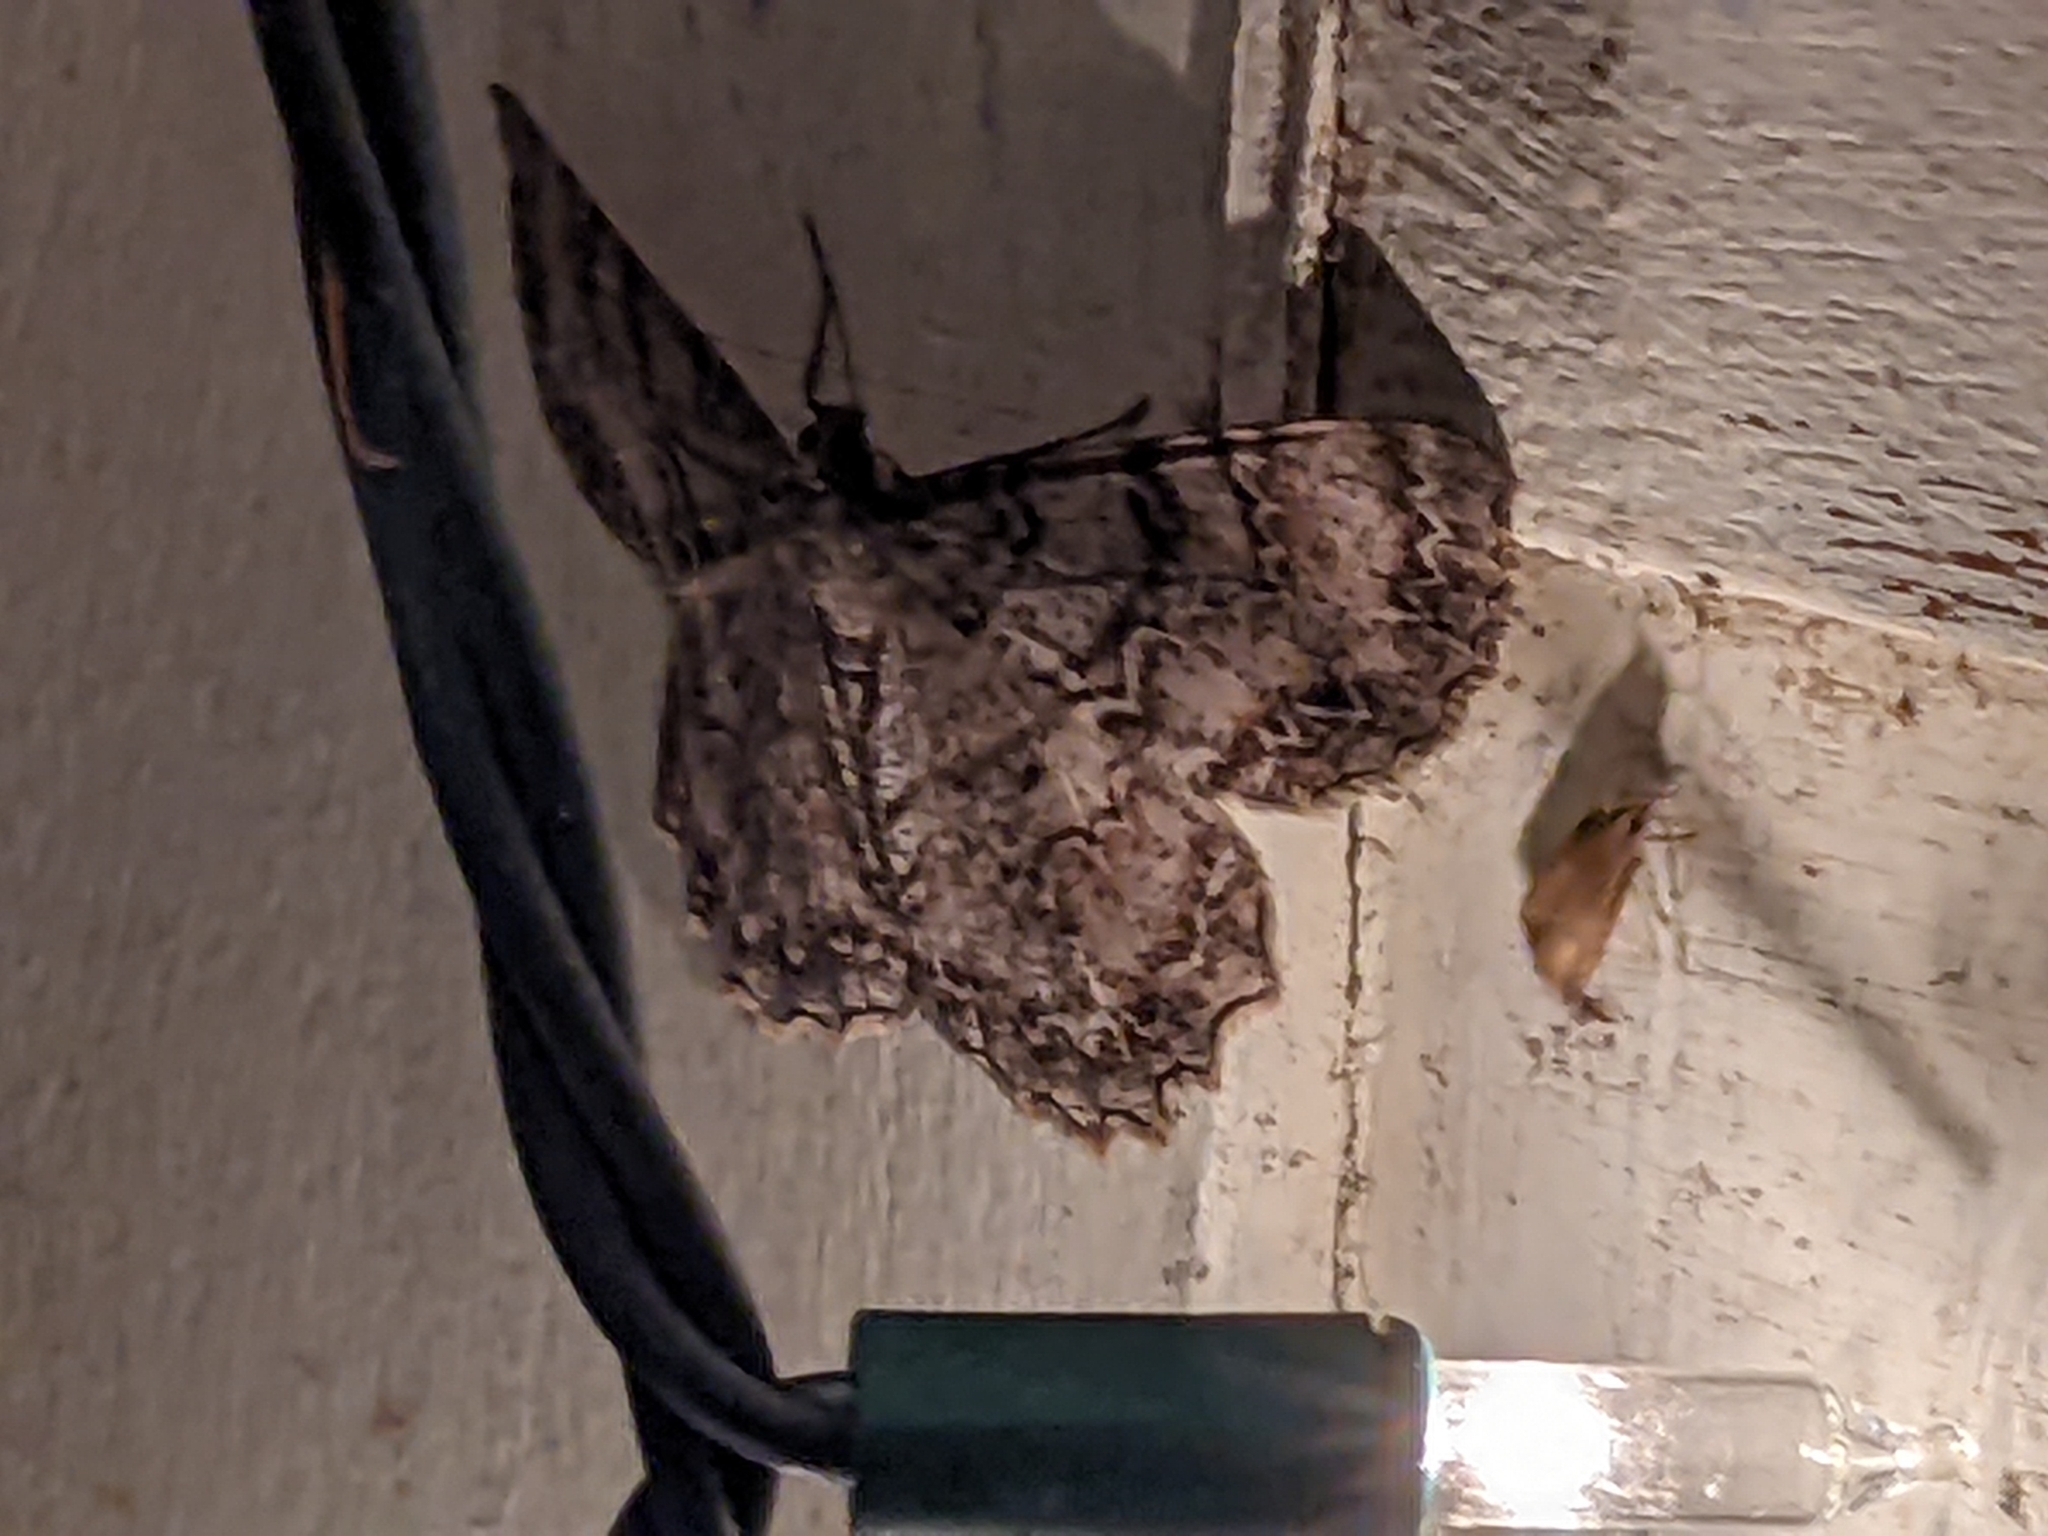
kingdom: Animalia
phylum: Arthropoda
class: Insecta
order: Lepidoptera
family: Geometridae
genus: Epimecis
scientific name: Epimecis hortaria
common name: Tulip-tree beauty
